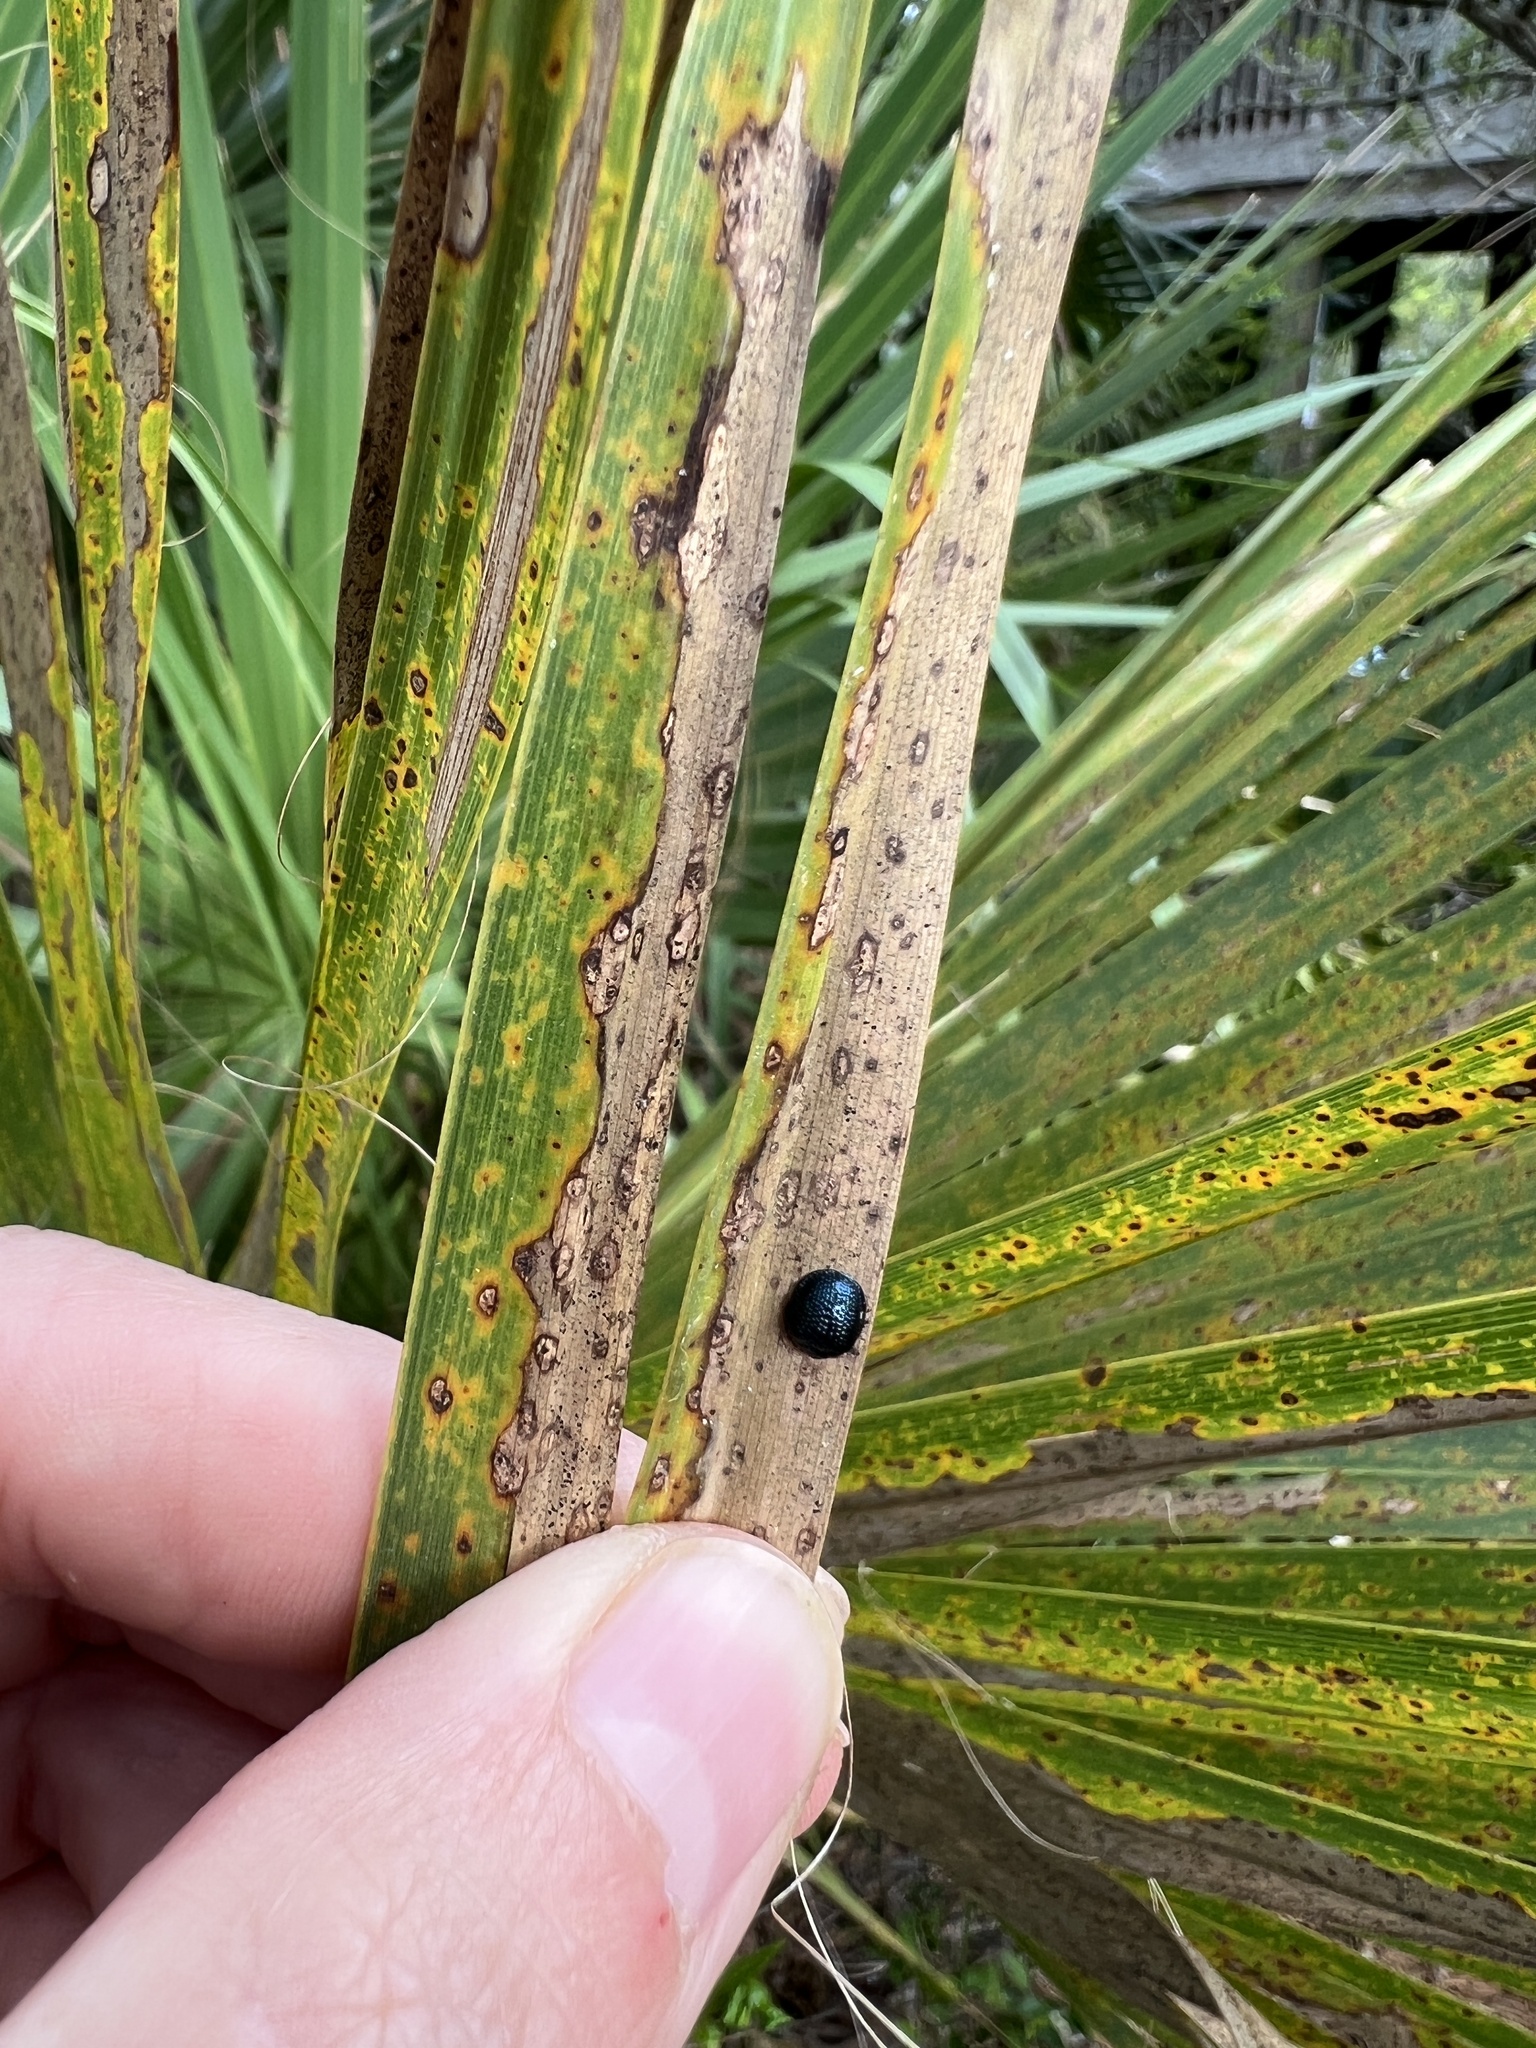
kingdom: Animalia
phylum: Arthropoda
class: Insecta
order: Coleoptera
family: Chrysomelidae
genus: Hemisphaerota
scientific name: Hemisphaerota cyanea
